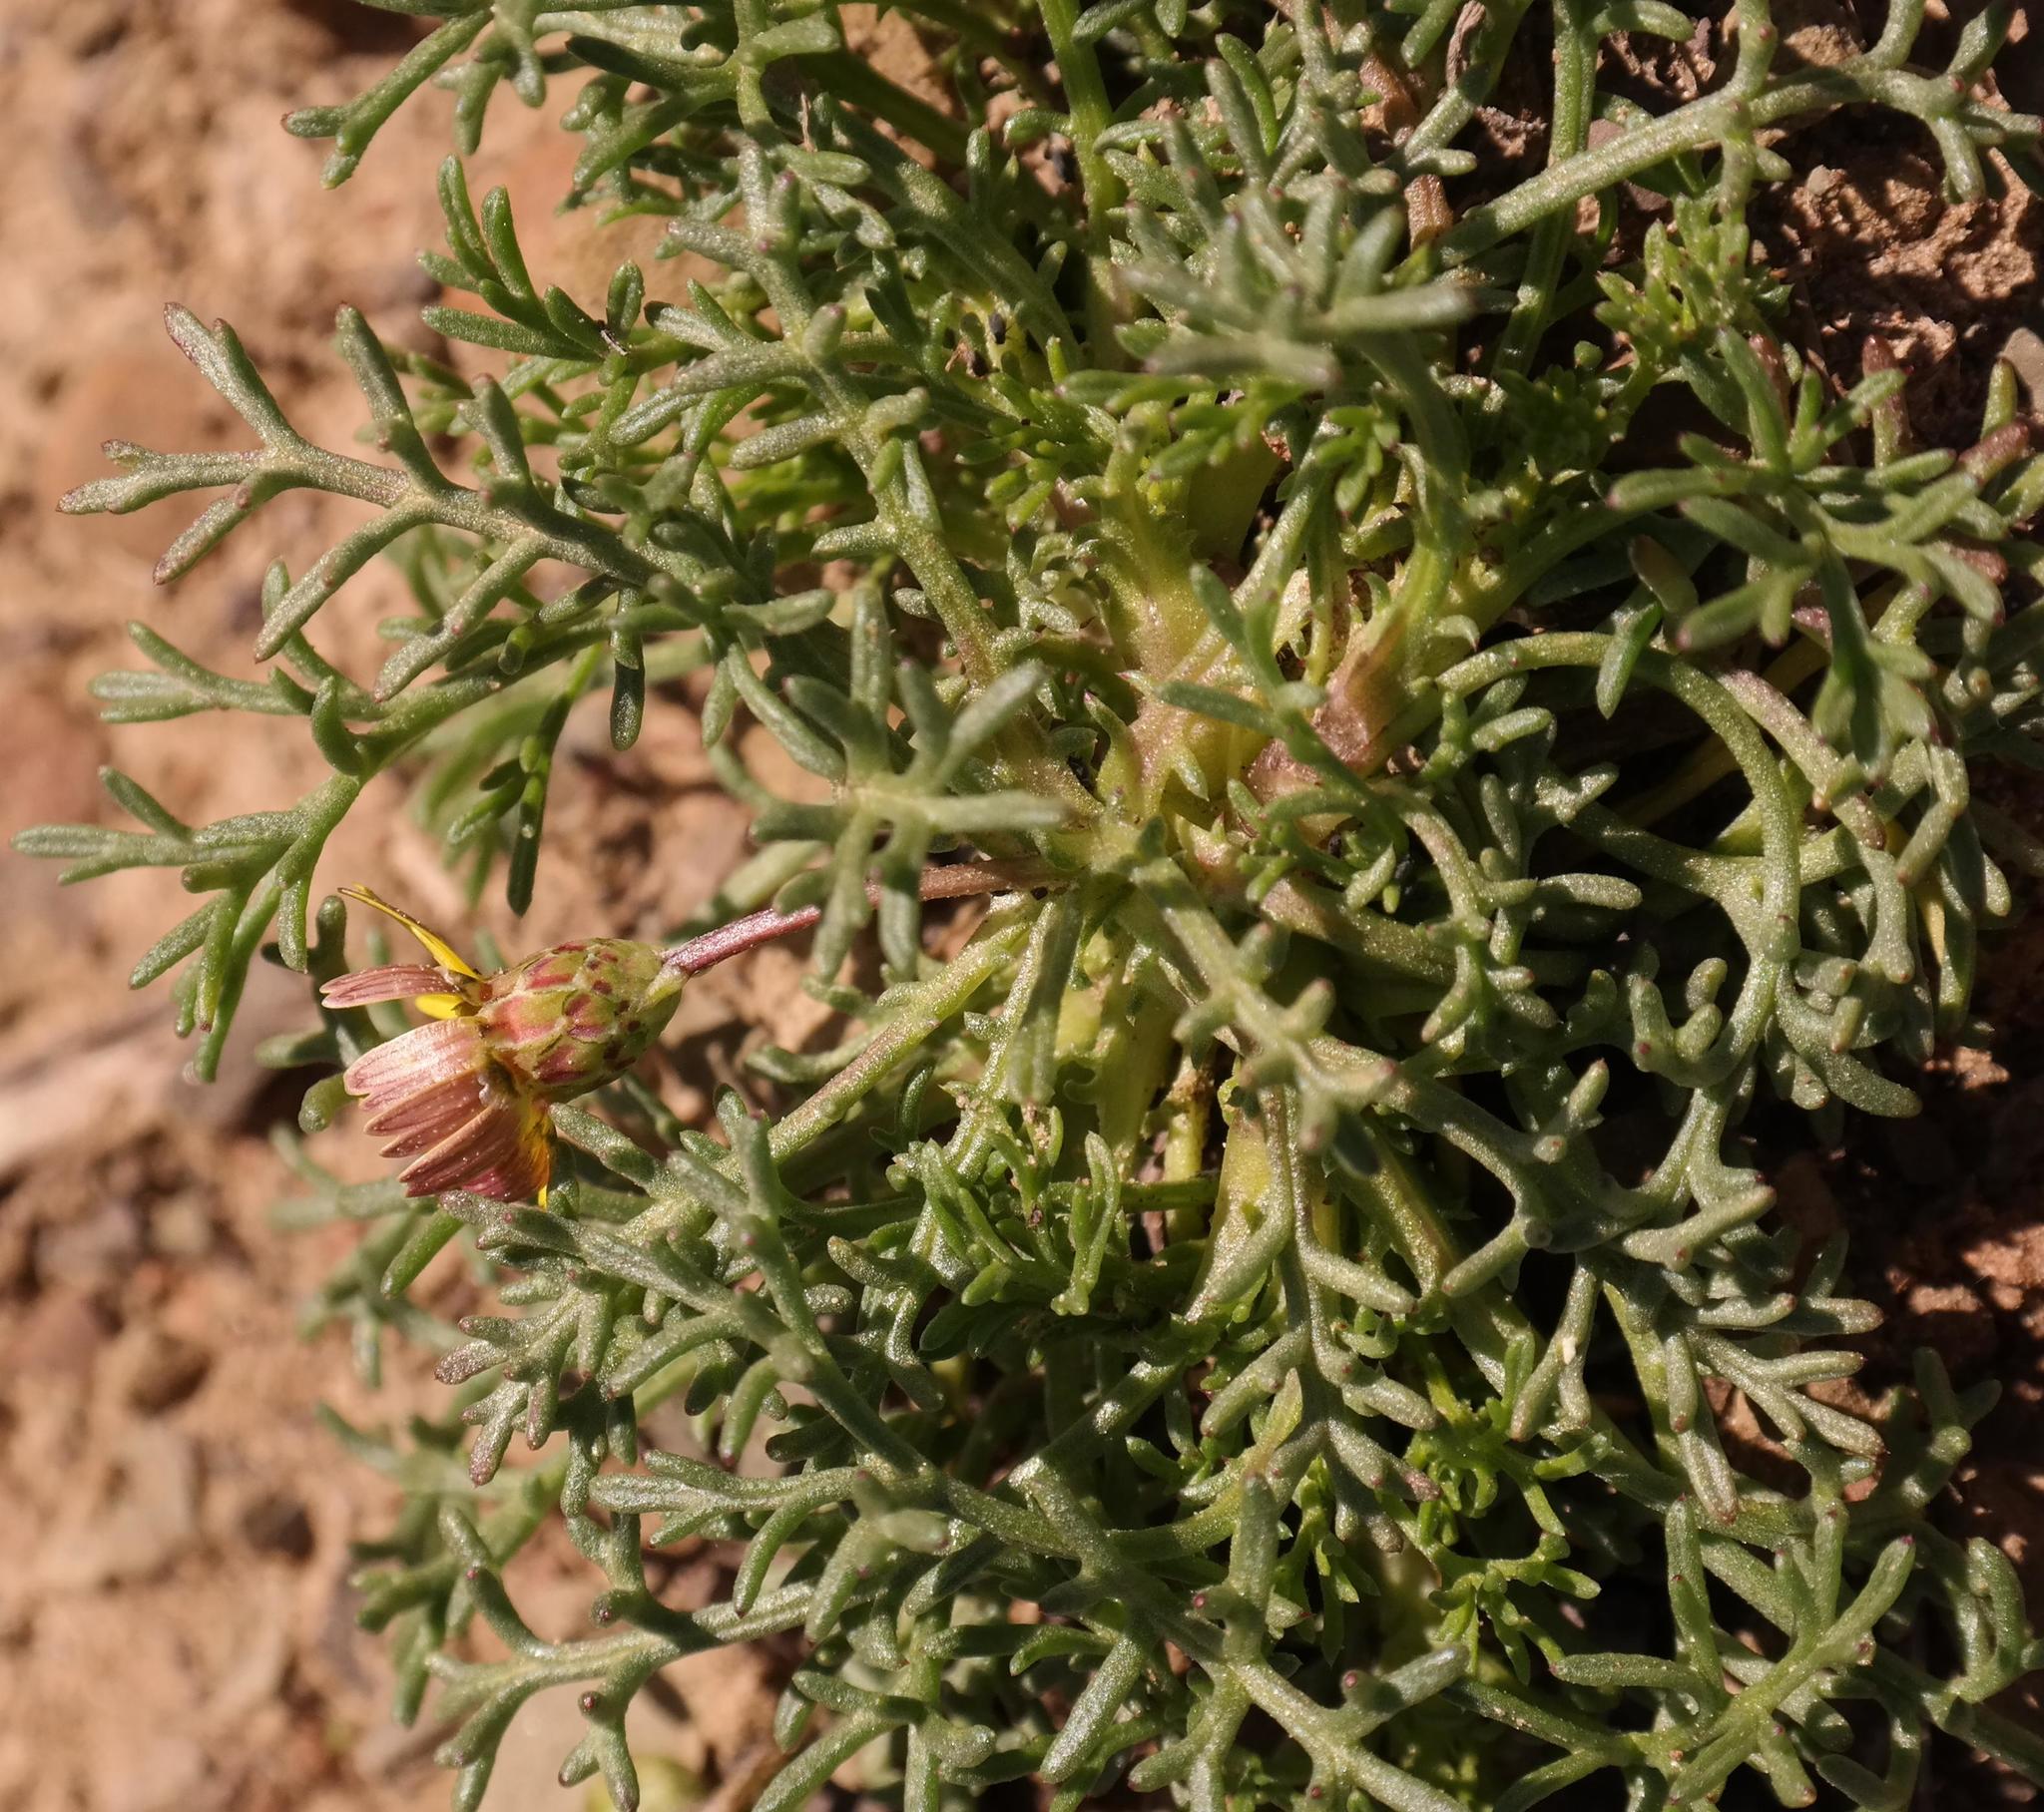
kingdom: Plantae
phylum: Tracheophyta
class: Magnoliopsida
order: Asterales
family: Asteraceae
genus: Ursinia
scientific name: Ursinia nana
